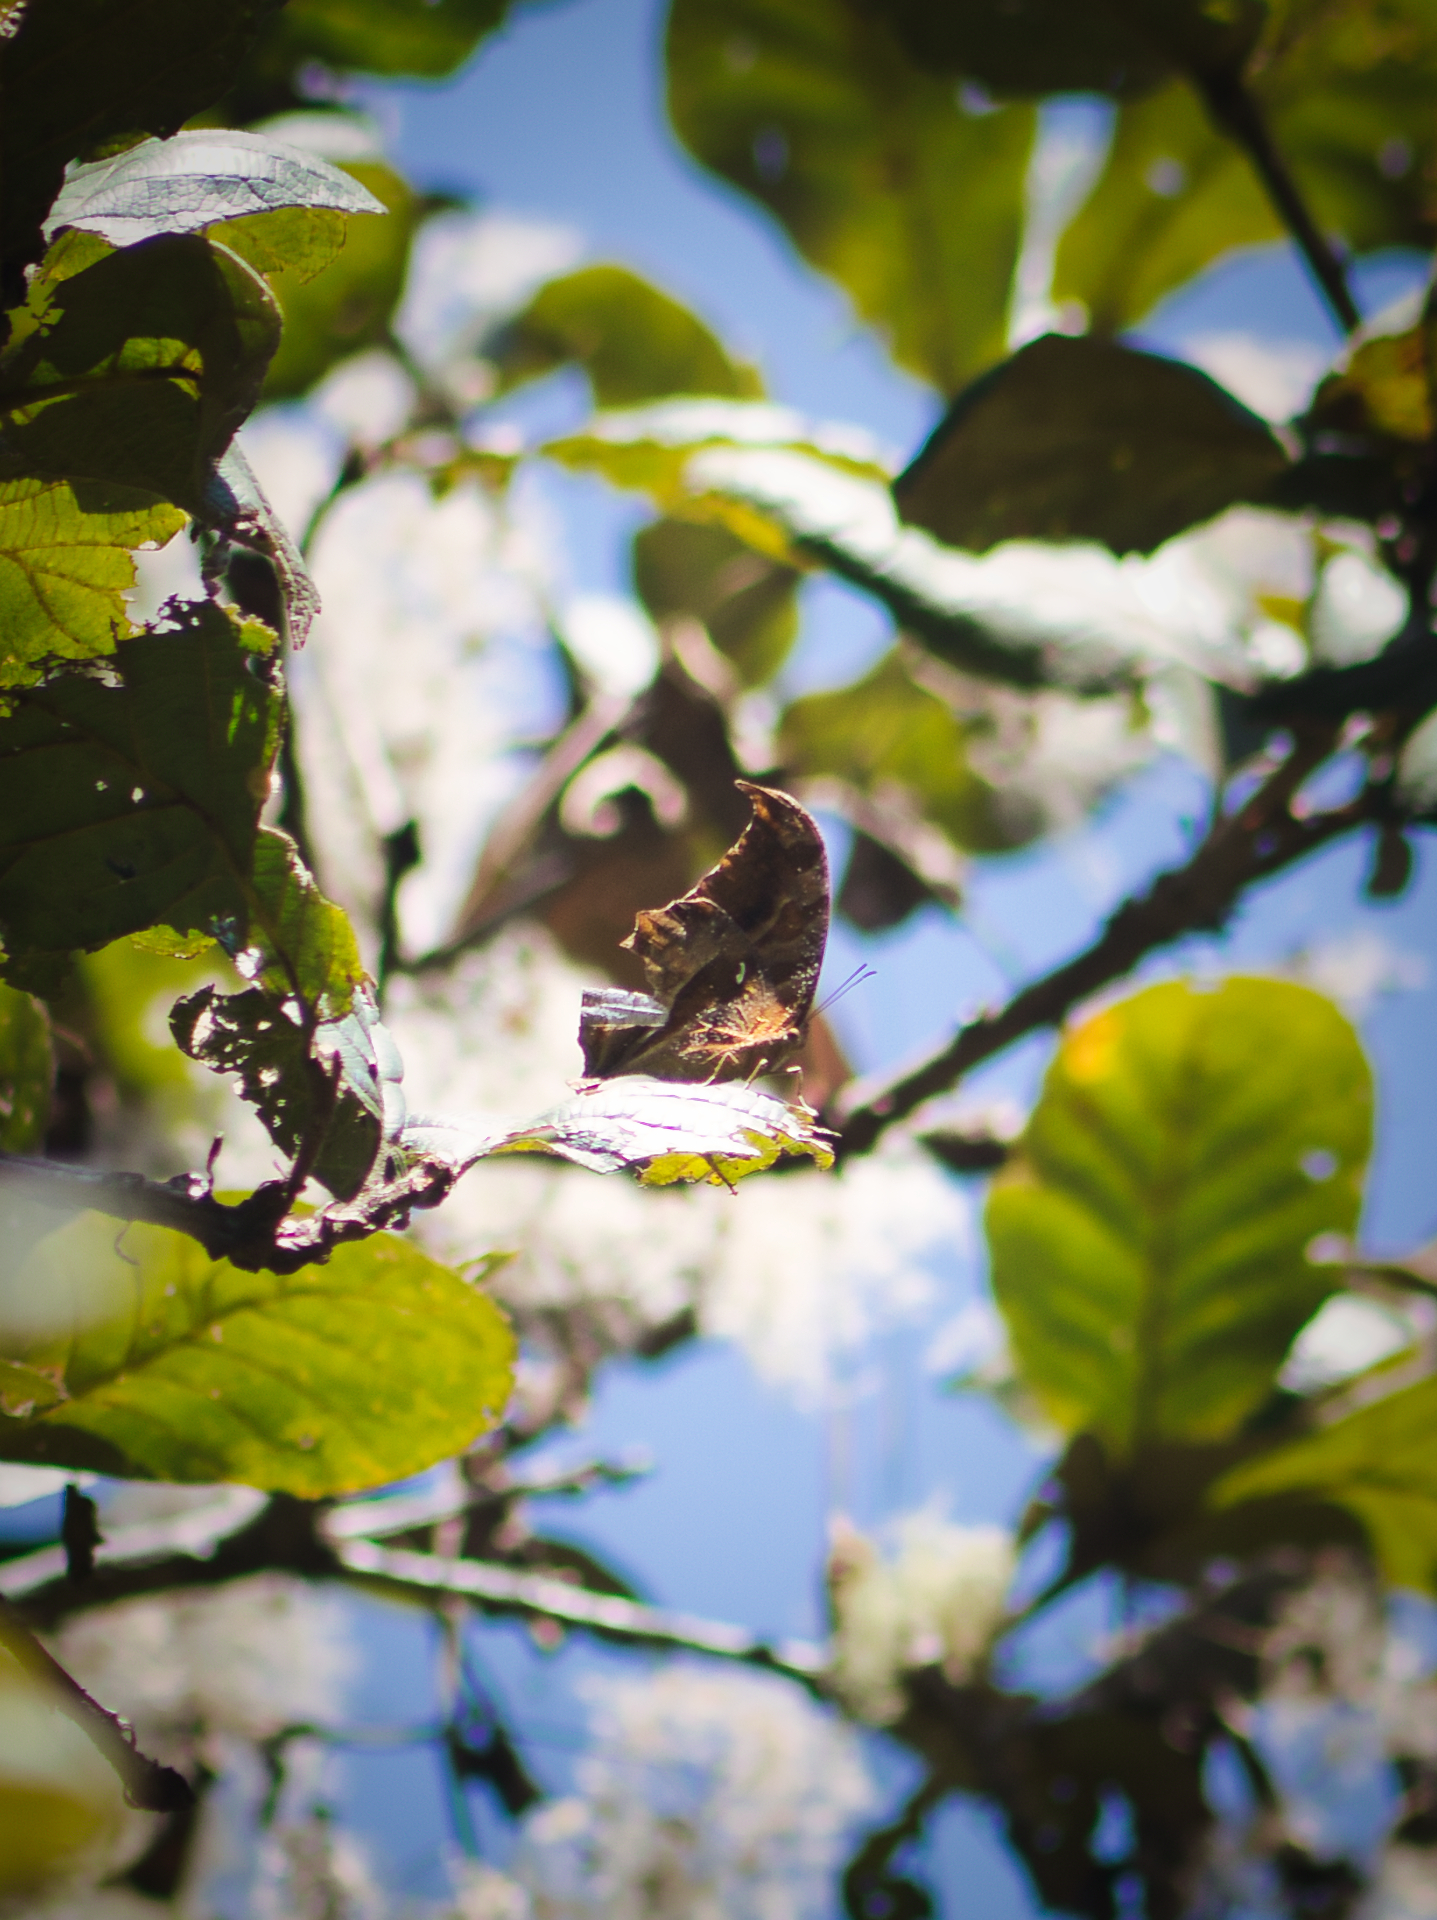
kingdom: Animalia
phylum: Arthropoda
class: Insecta
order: Lepidoptera
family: Nymphalidae
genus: Consul
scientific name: Consul excellens
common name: Black-veined leafwing
